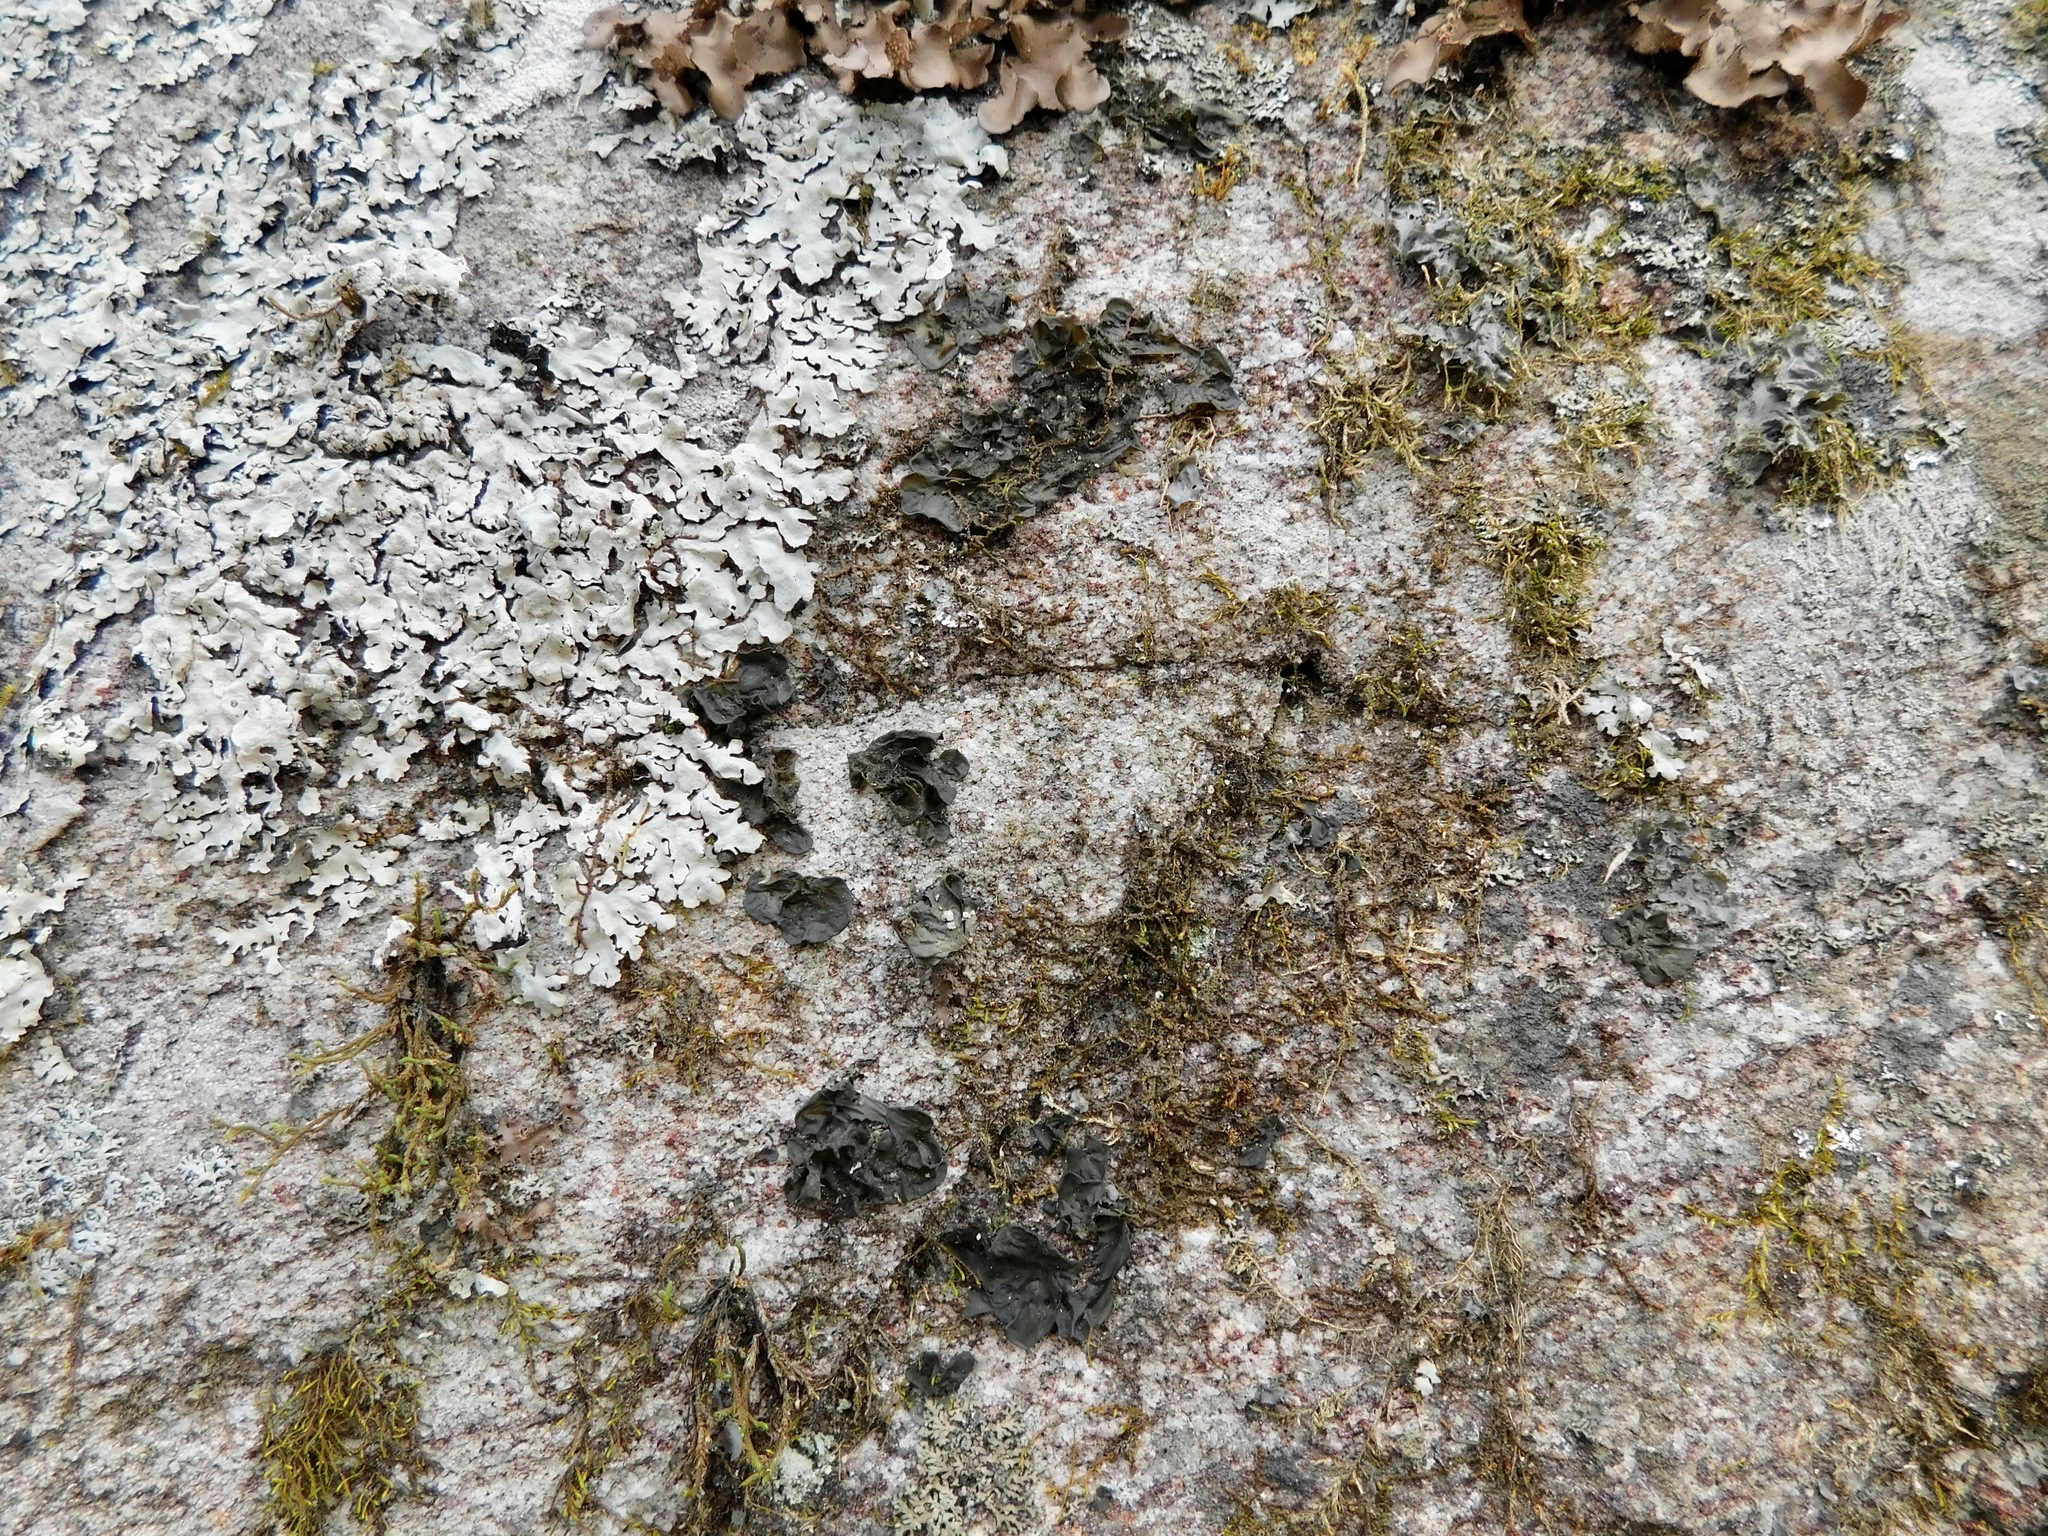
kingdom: Fungi
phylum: Ascomycota
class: Lecanoromycetes
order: Peltigerales
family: Collemataceae
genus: Collema
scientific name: Collema subflaccidum
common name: Tree jelly
